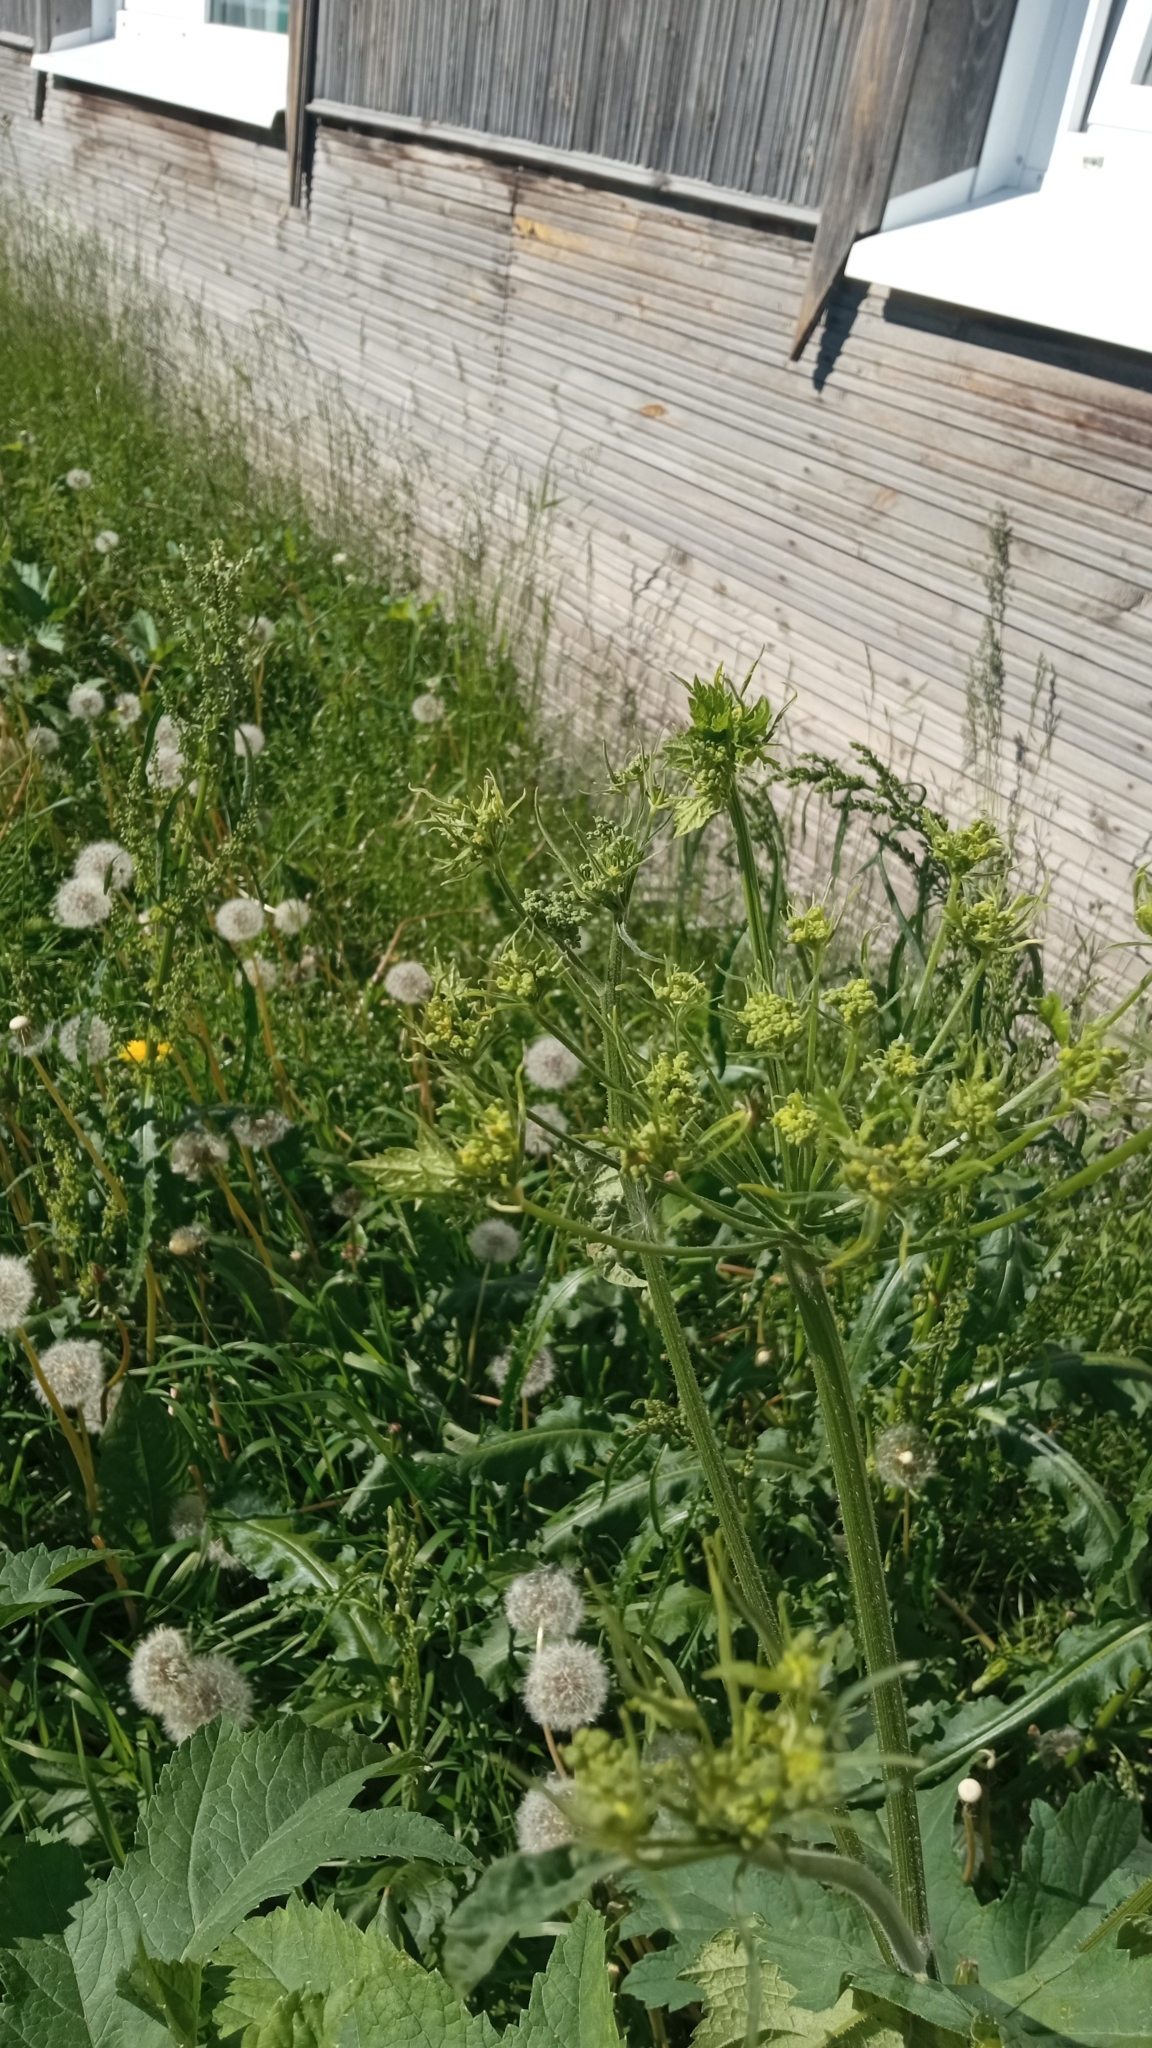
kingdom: Plantae
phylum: Tracheophyta
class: Magnoliopsida
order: Apiales
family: Apiaceae
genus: Heracleum
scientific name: Heracleum sphondylium
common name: Hogweed
